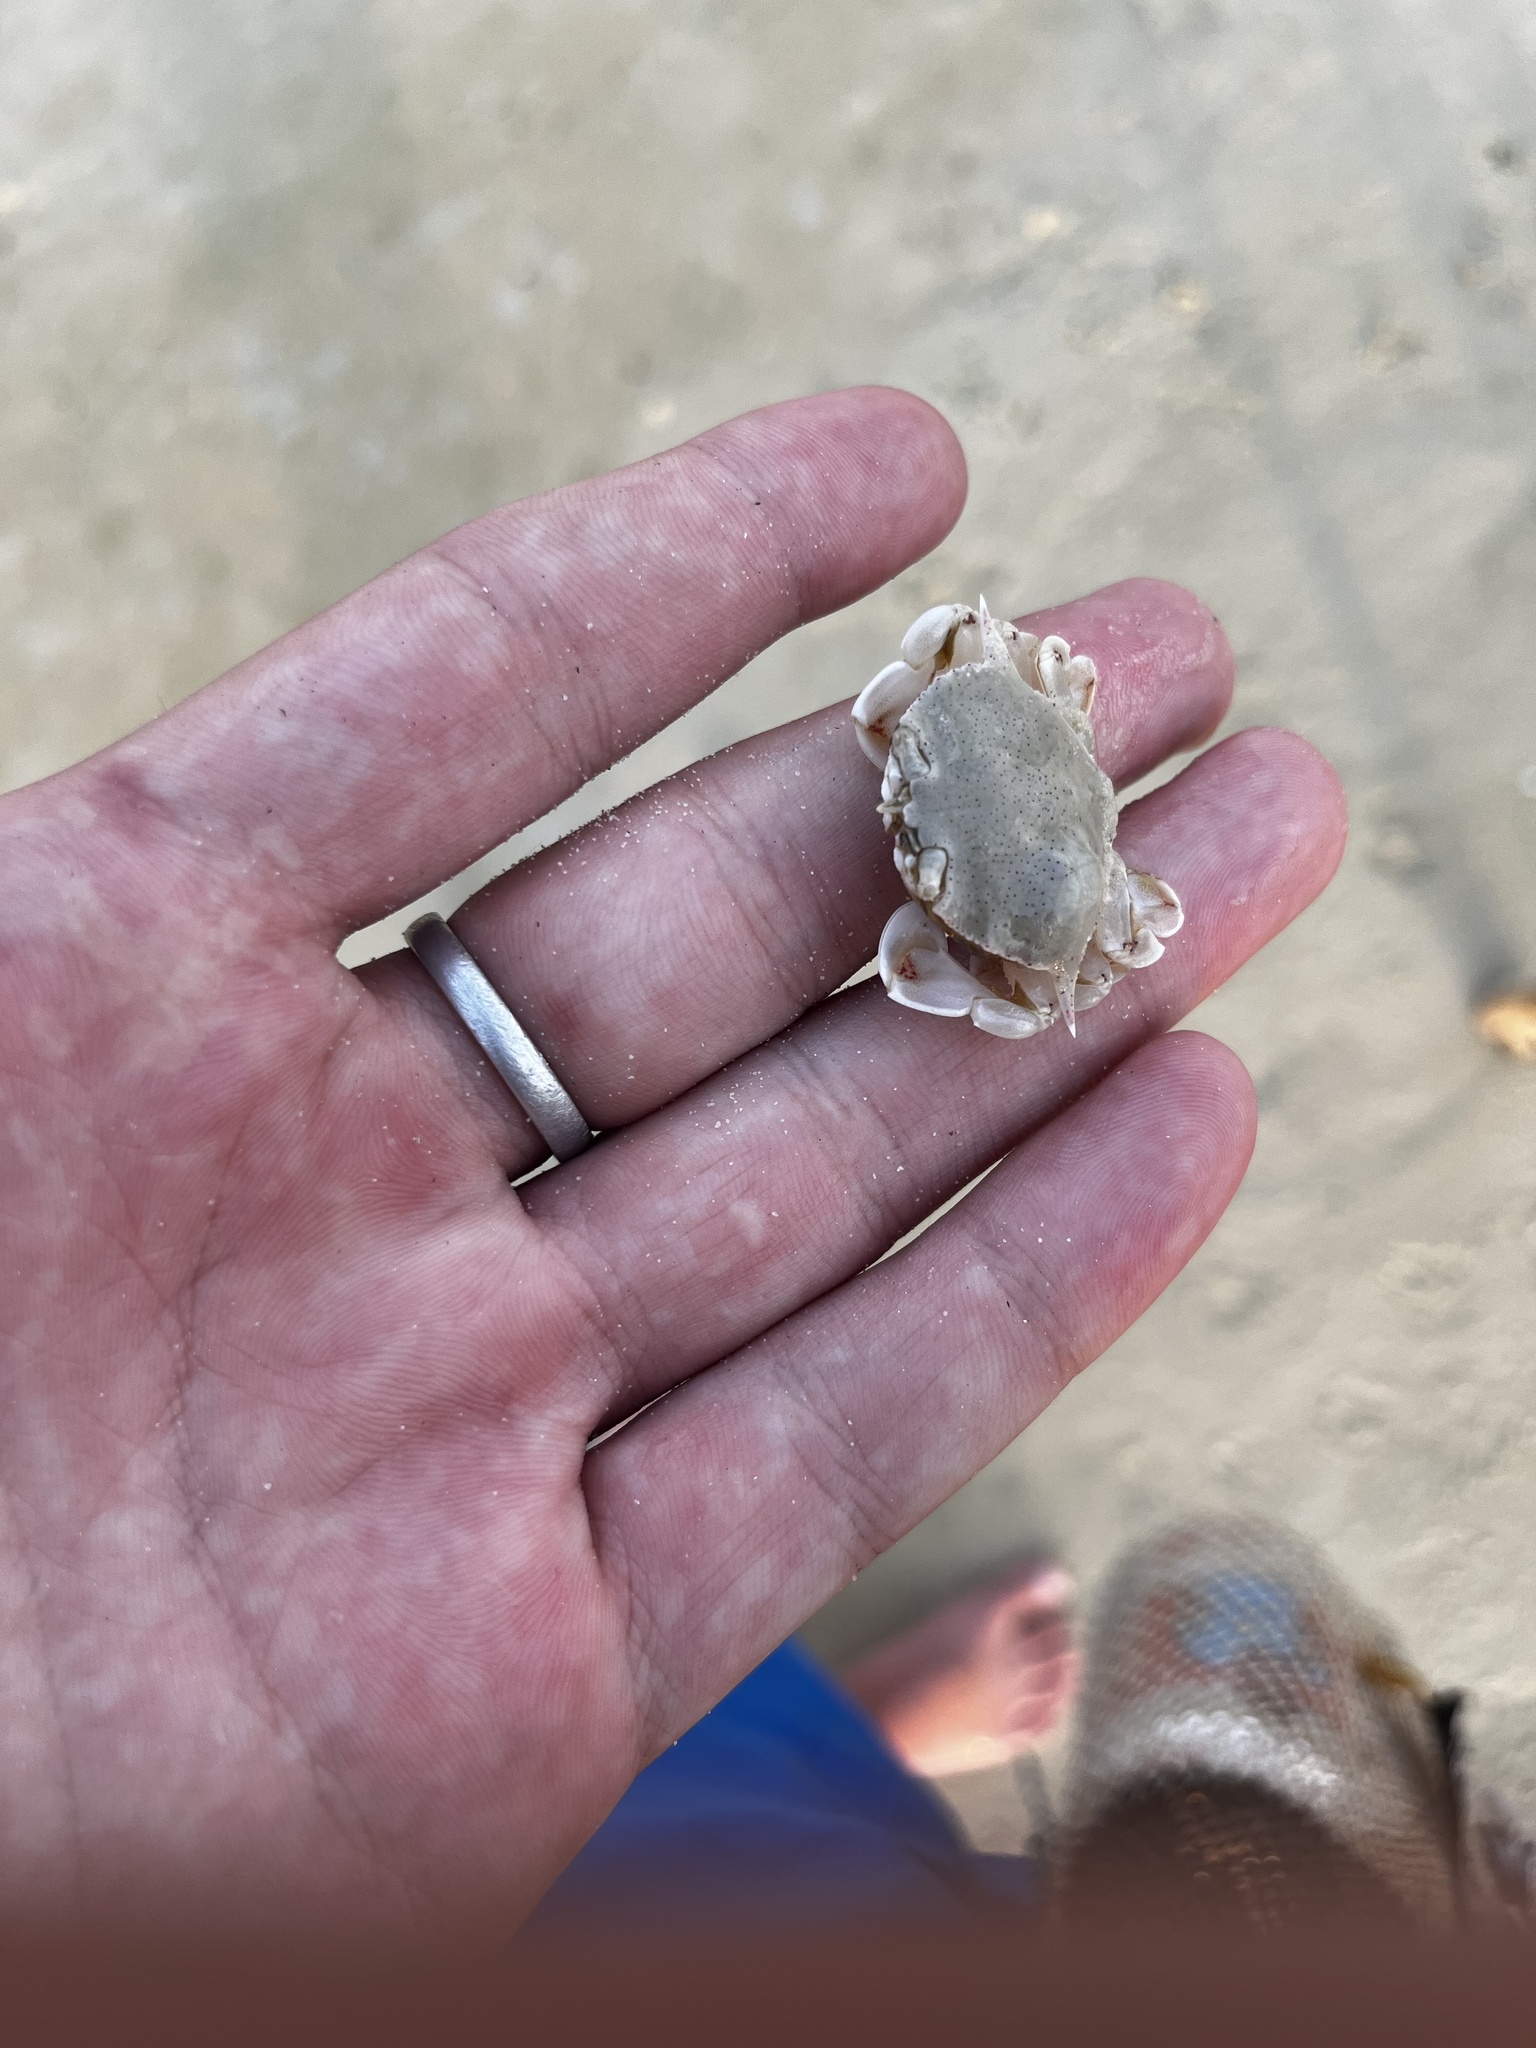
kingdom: Animalia
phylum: Arthropoda
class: Malacostraca
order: Decapoda
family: Matutidae
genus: Matuta
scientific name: Matuta victor
